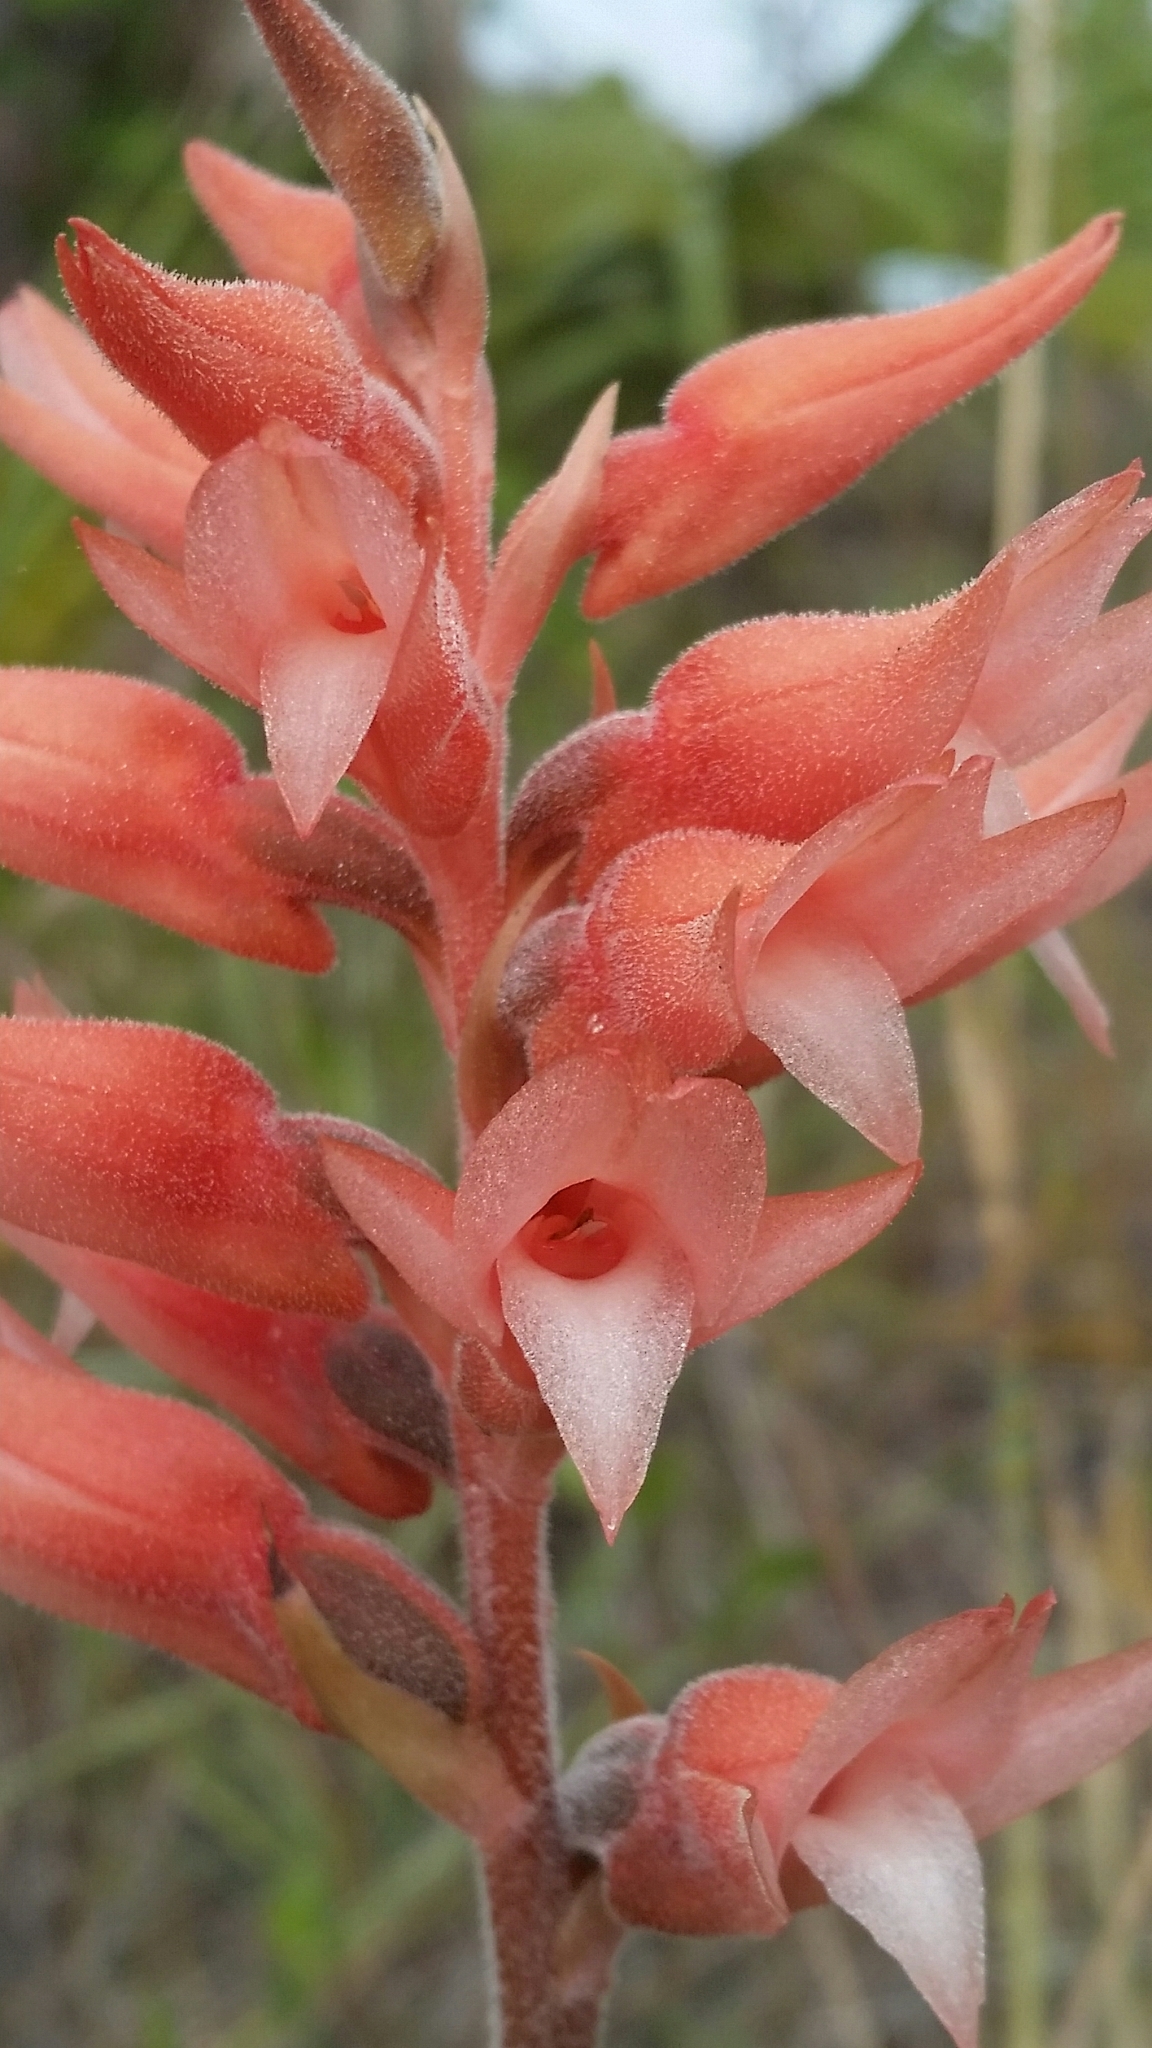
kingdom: Plantae
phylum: Tracheophyta
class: Liliopsida
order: Asparagales
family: Orchidaceae
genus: Sacoila
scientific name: Sacoila lanceolata
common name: Leafless beaked ladiestresses
